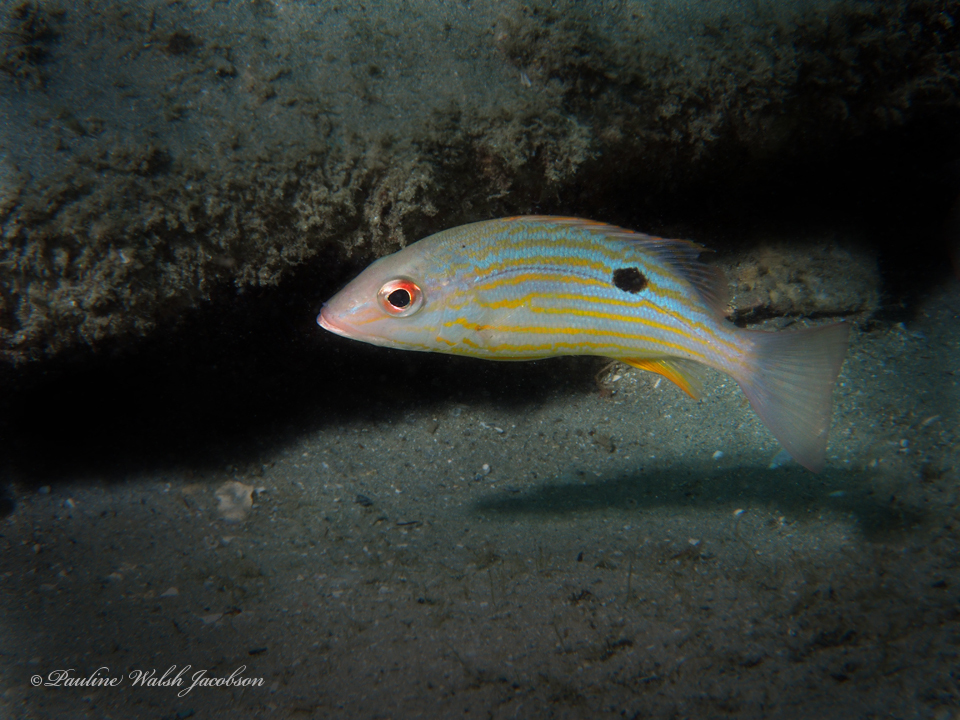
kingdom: Animalia
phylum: Chordata
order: Perciformes
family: Lutjanidae
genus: Lutjanus
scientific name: Lutjanus synagris
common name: Lane snapper
